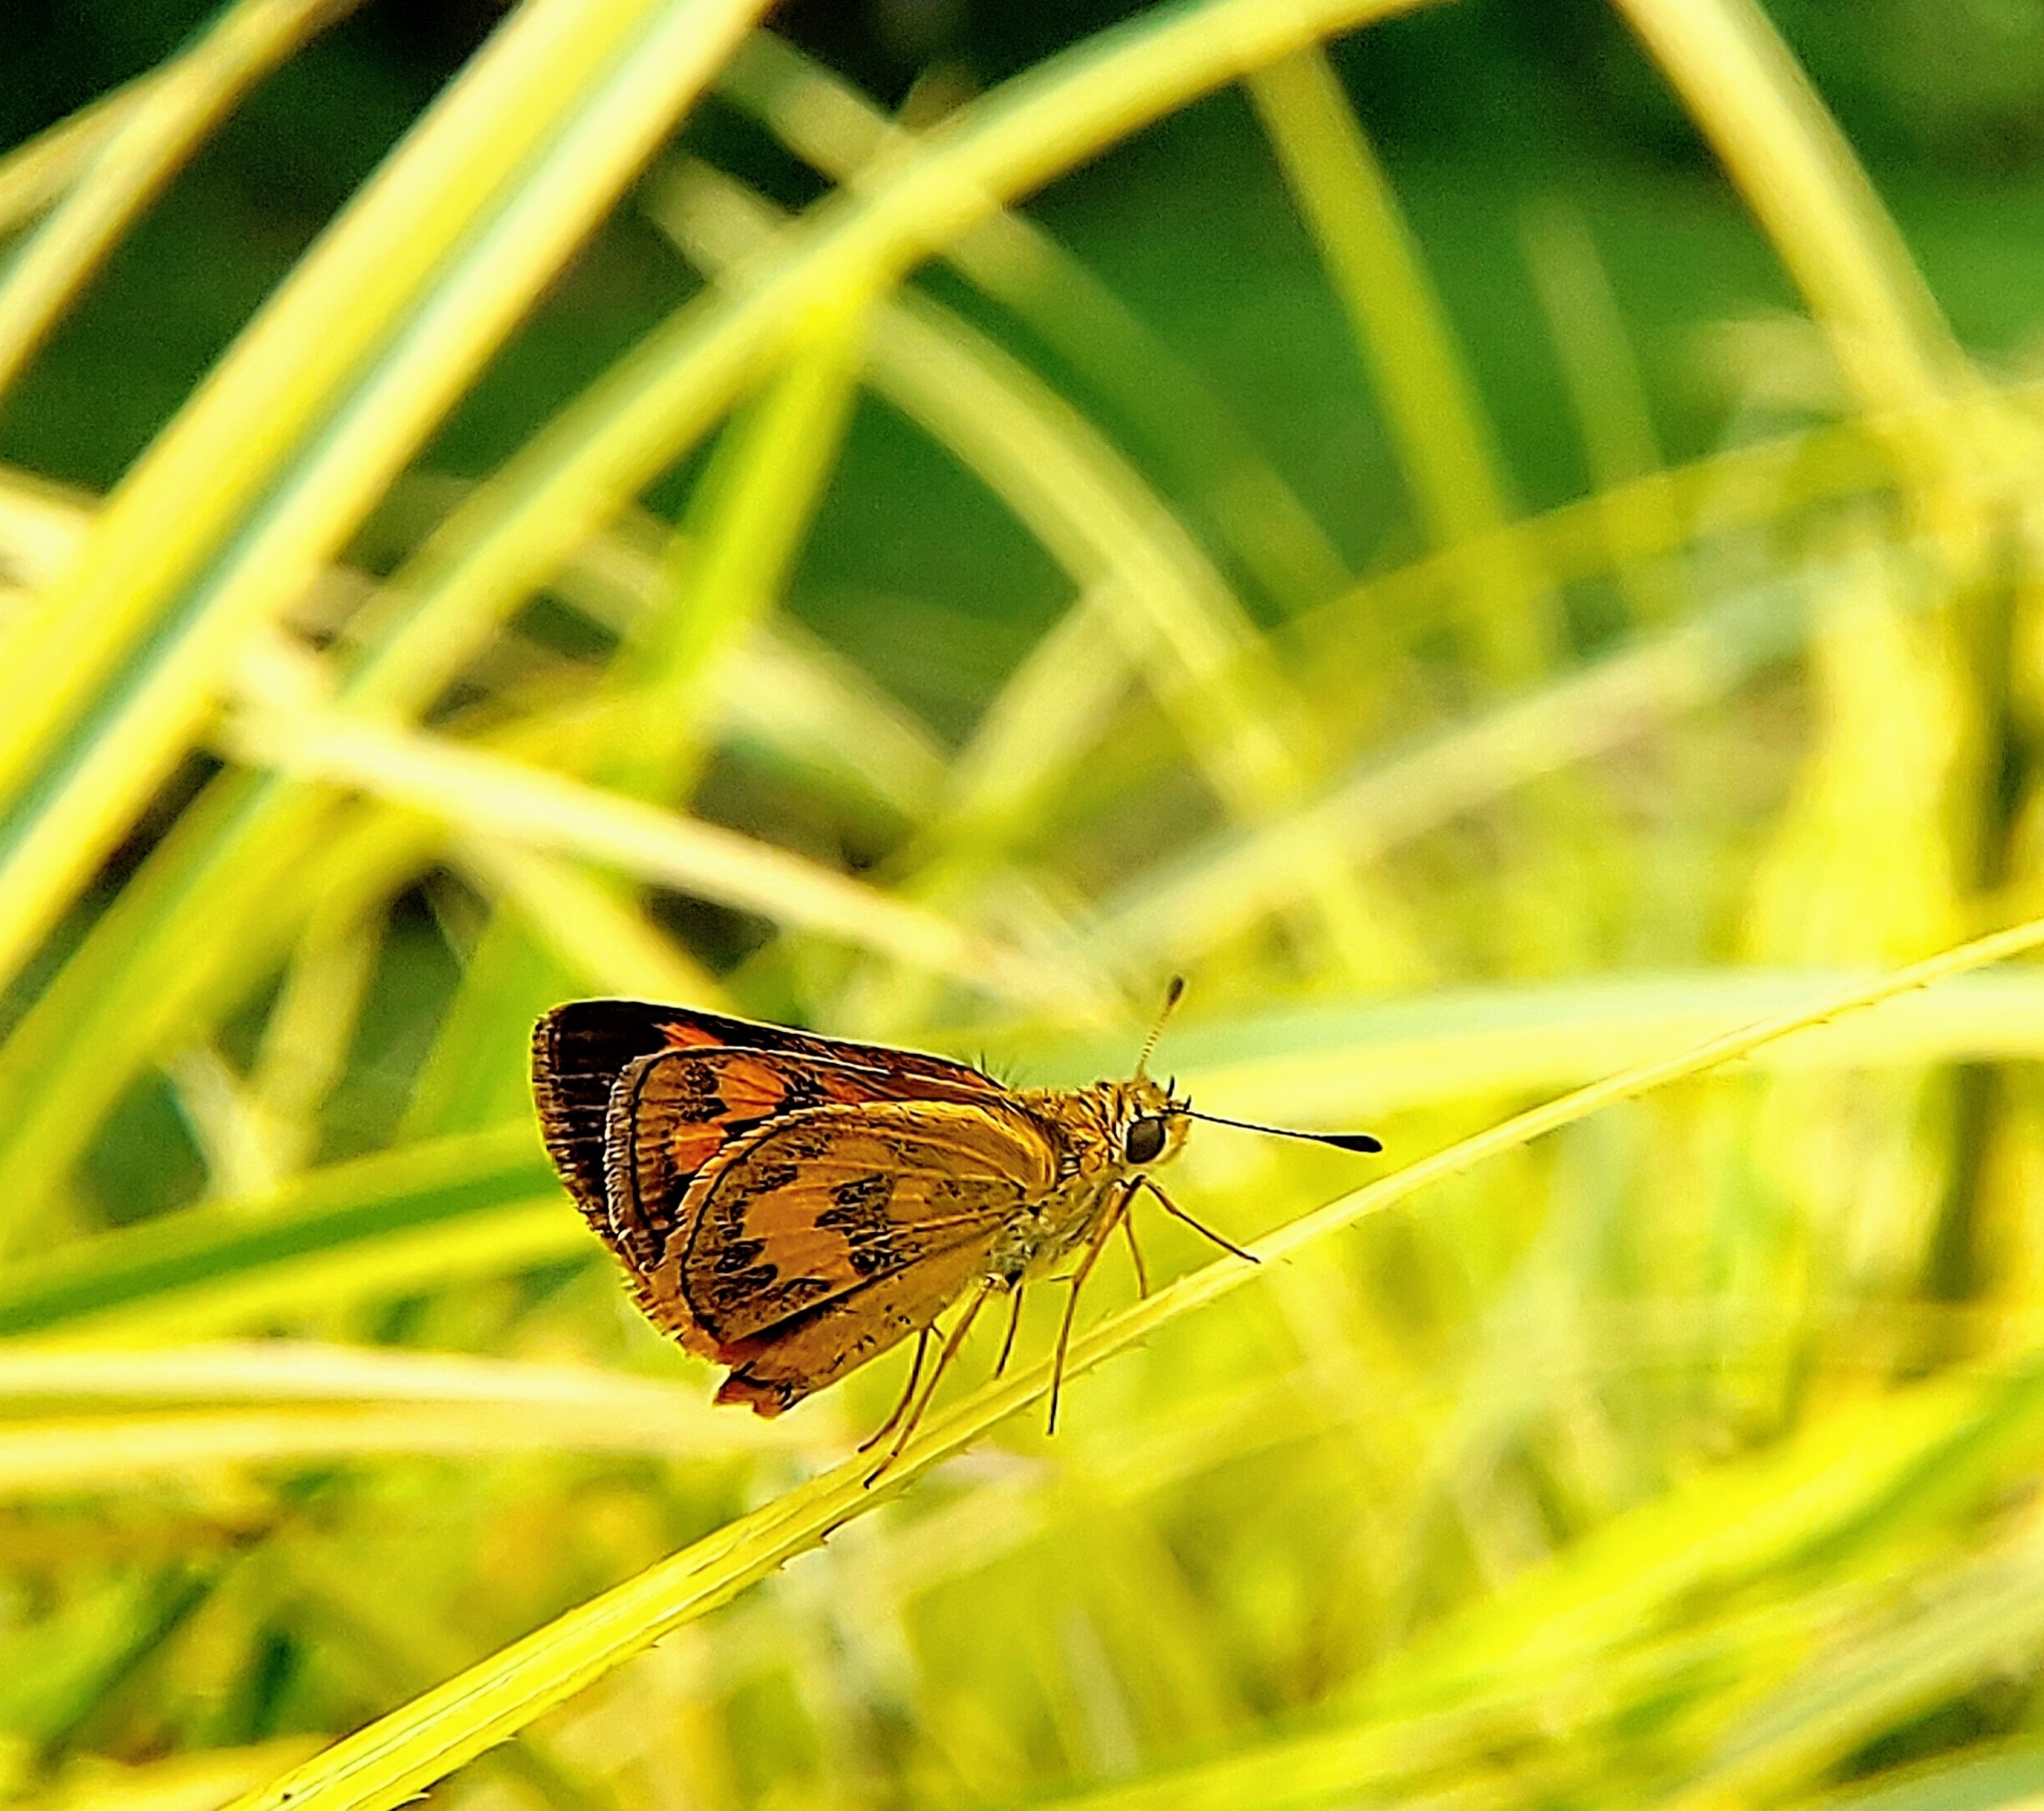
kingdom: Animalia
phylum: Arthropoda
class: Insecta
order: Lepidoptera
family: Hesperiidae
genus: Taractrocera
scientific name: Taractrocera archias
